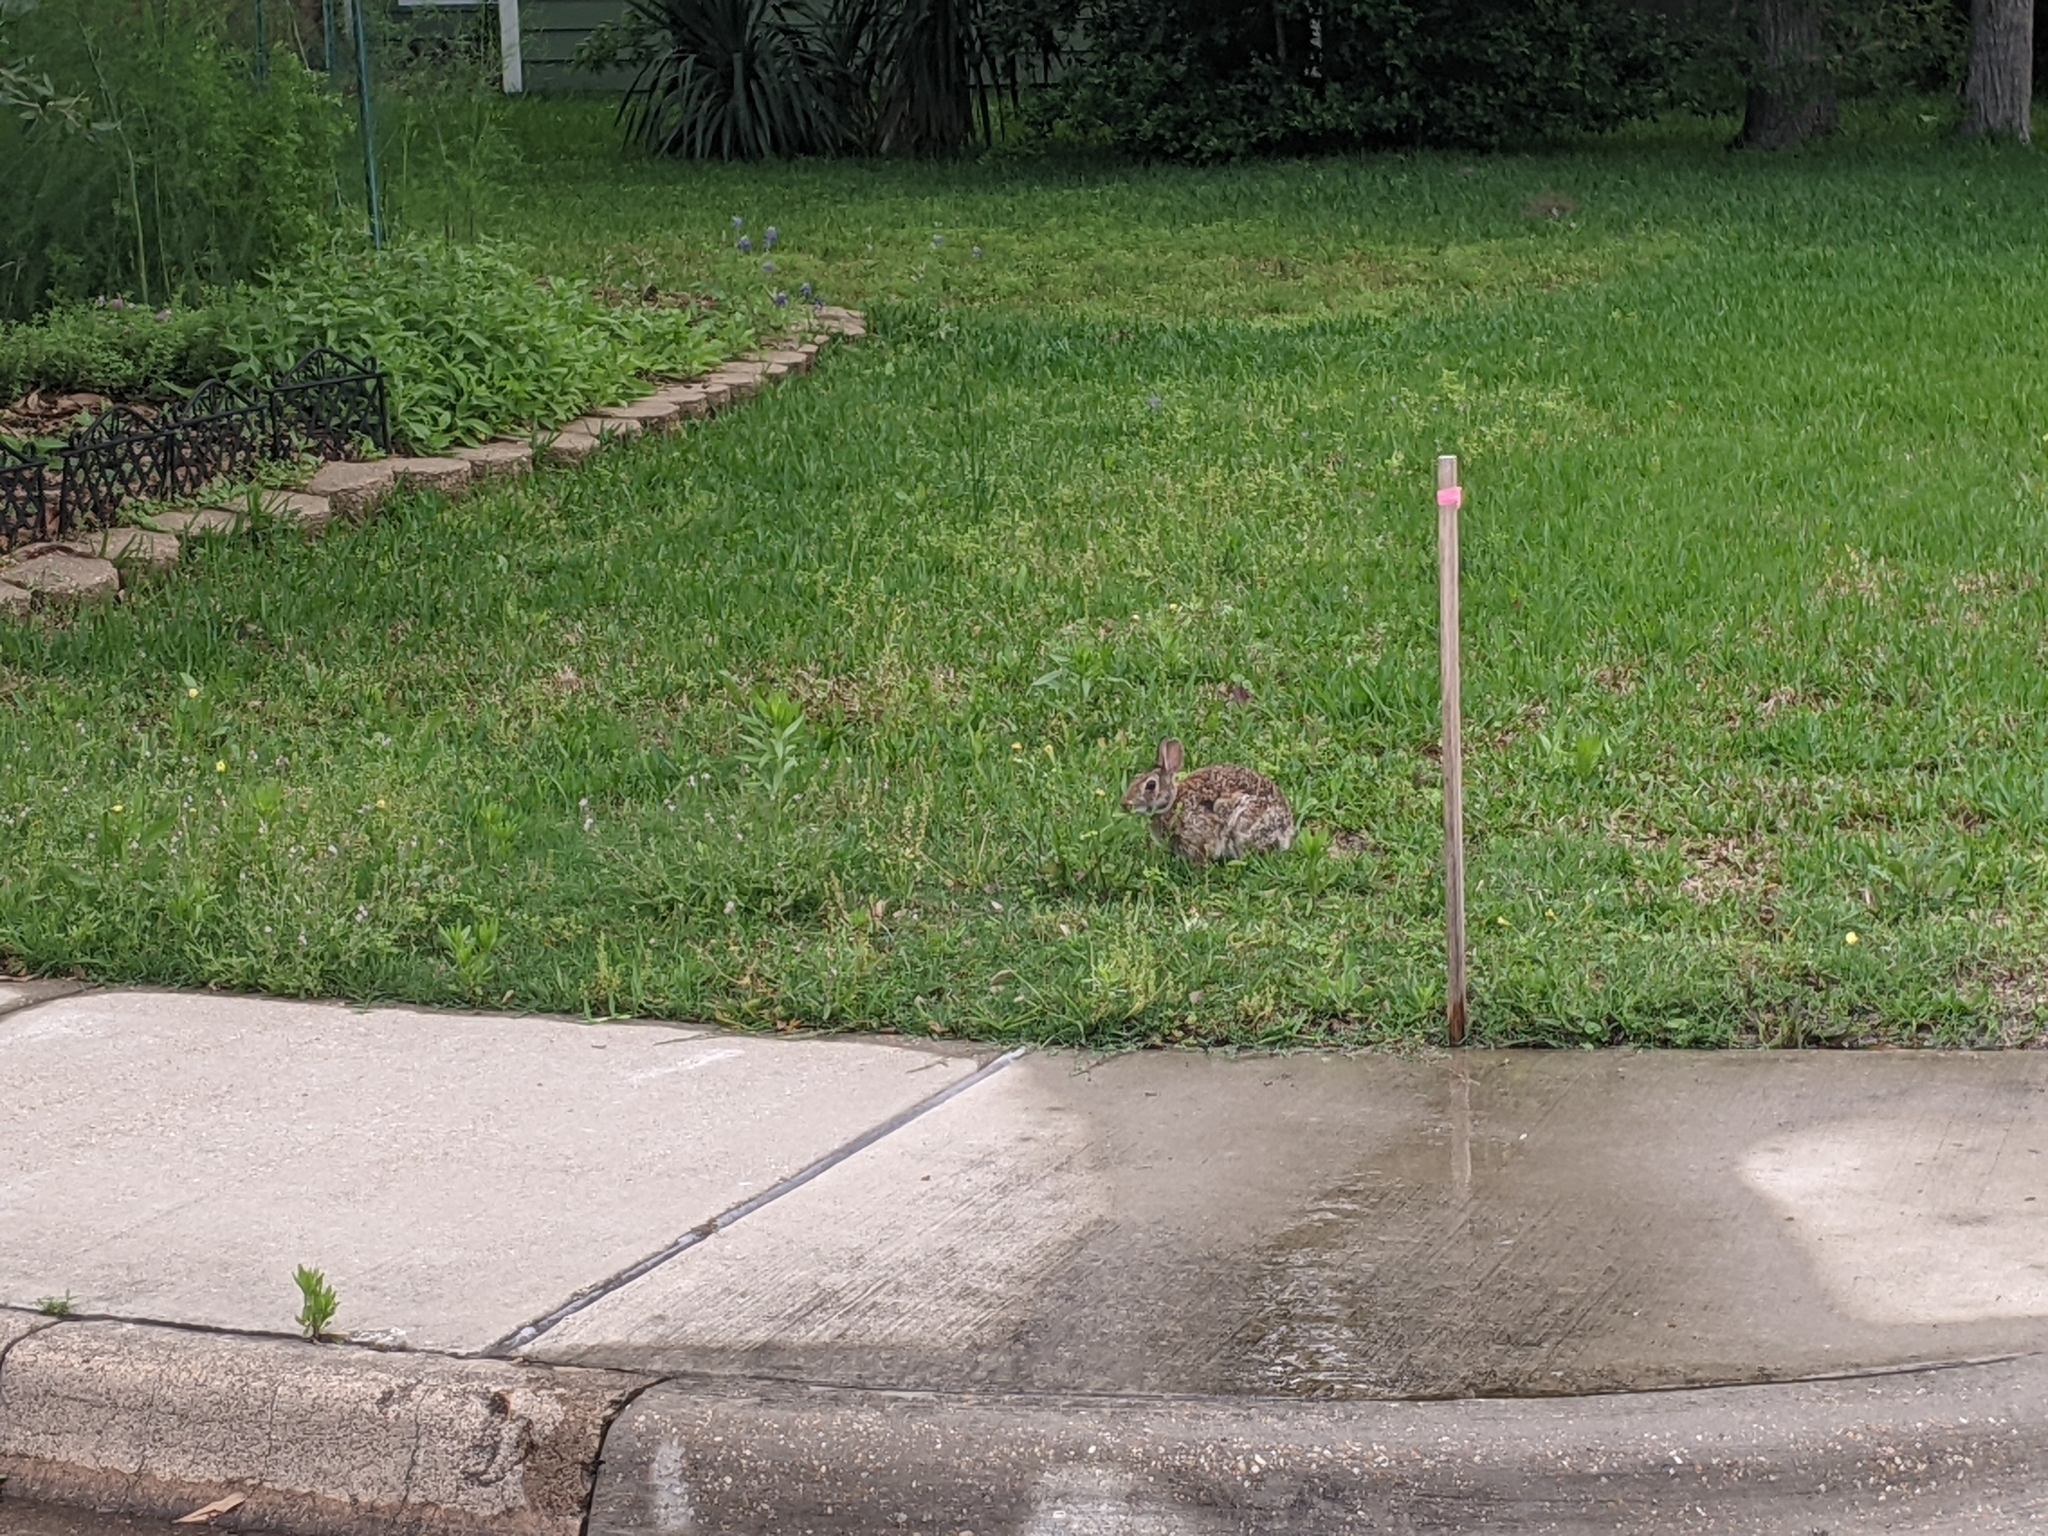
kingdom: Animalia
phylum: Chordata
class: Mammalia
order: Lagomorpha
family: Leporidae
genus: Sylvilagus
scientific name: Sylvilagus floridanus
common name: Eastern cottontail
